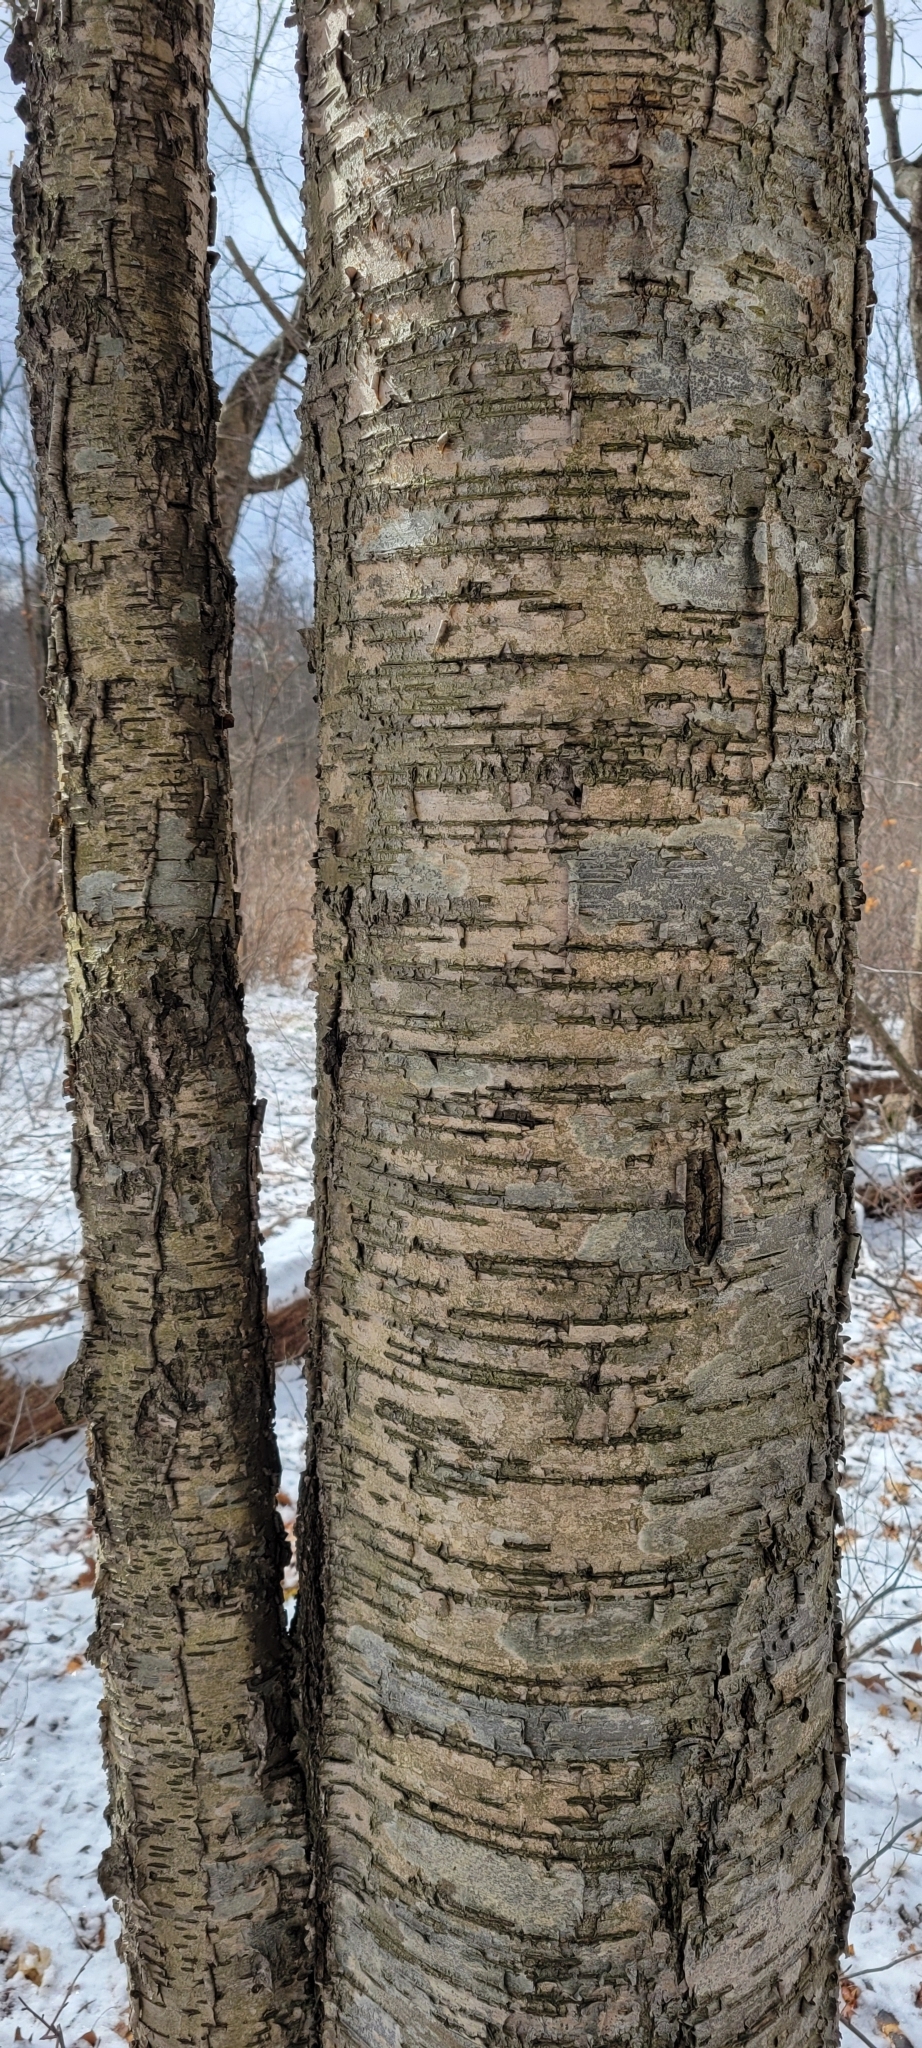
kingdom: Plantae
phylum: Tracheophyta
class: Magnoliopsida
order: Fagales
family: Betulaceae
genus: Betula
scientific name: Betula alleghaniensis
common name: Yellow birch
